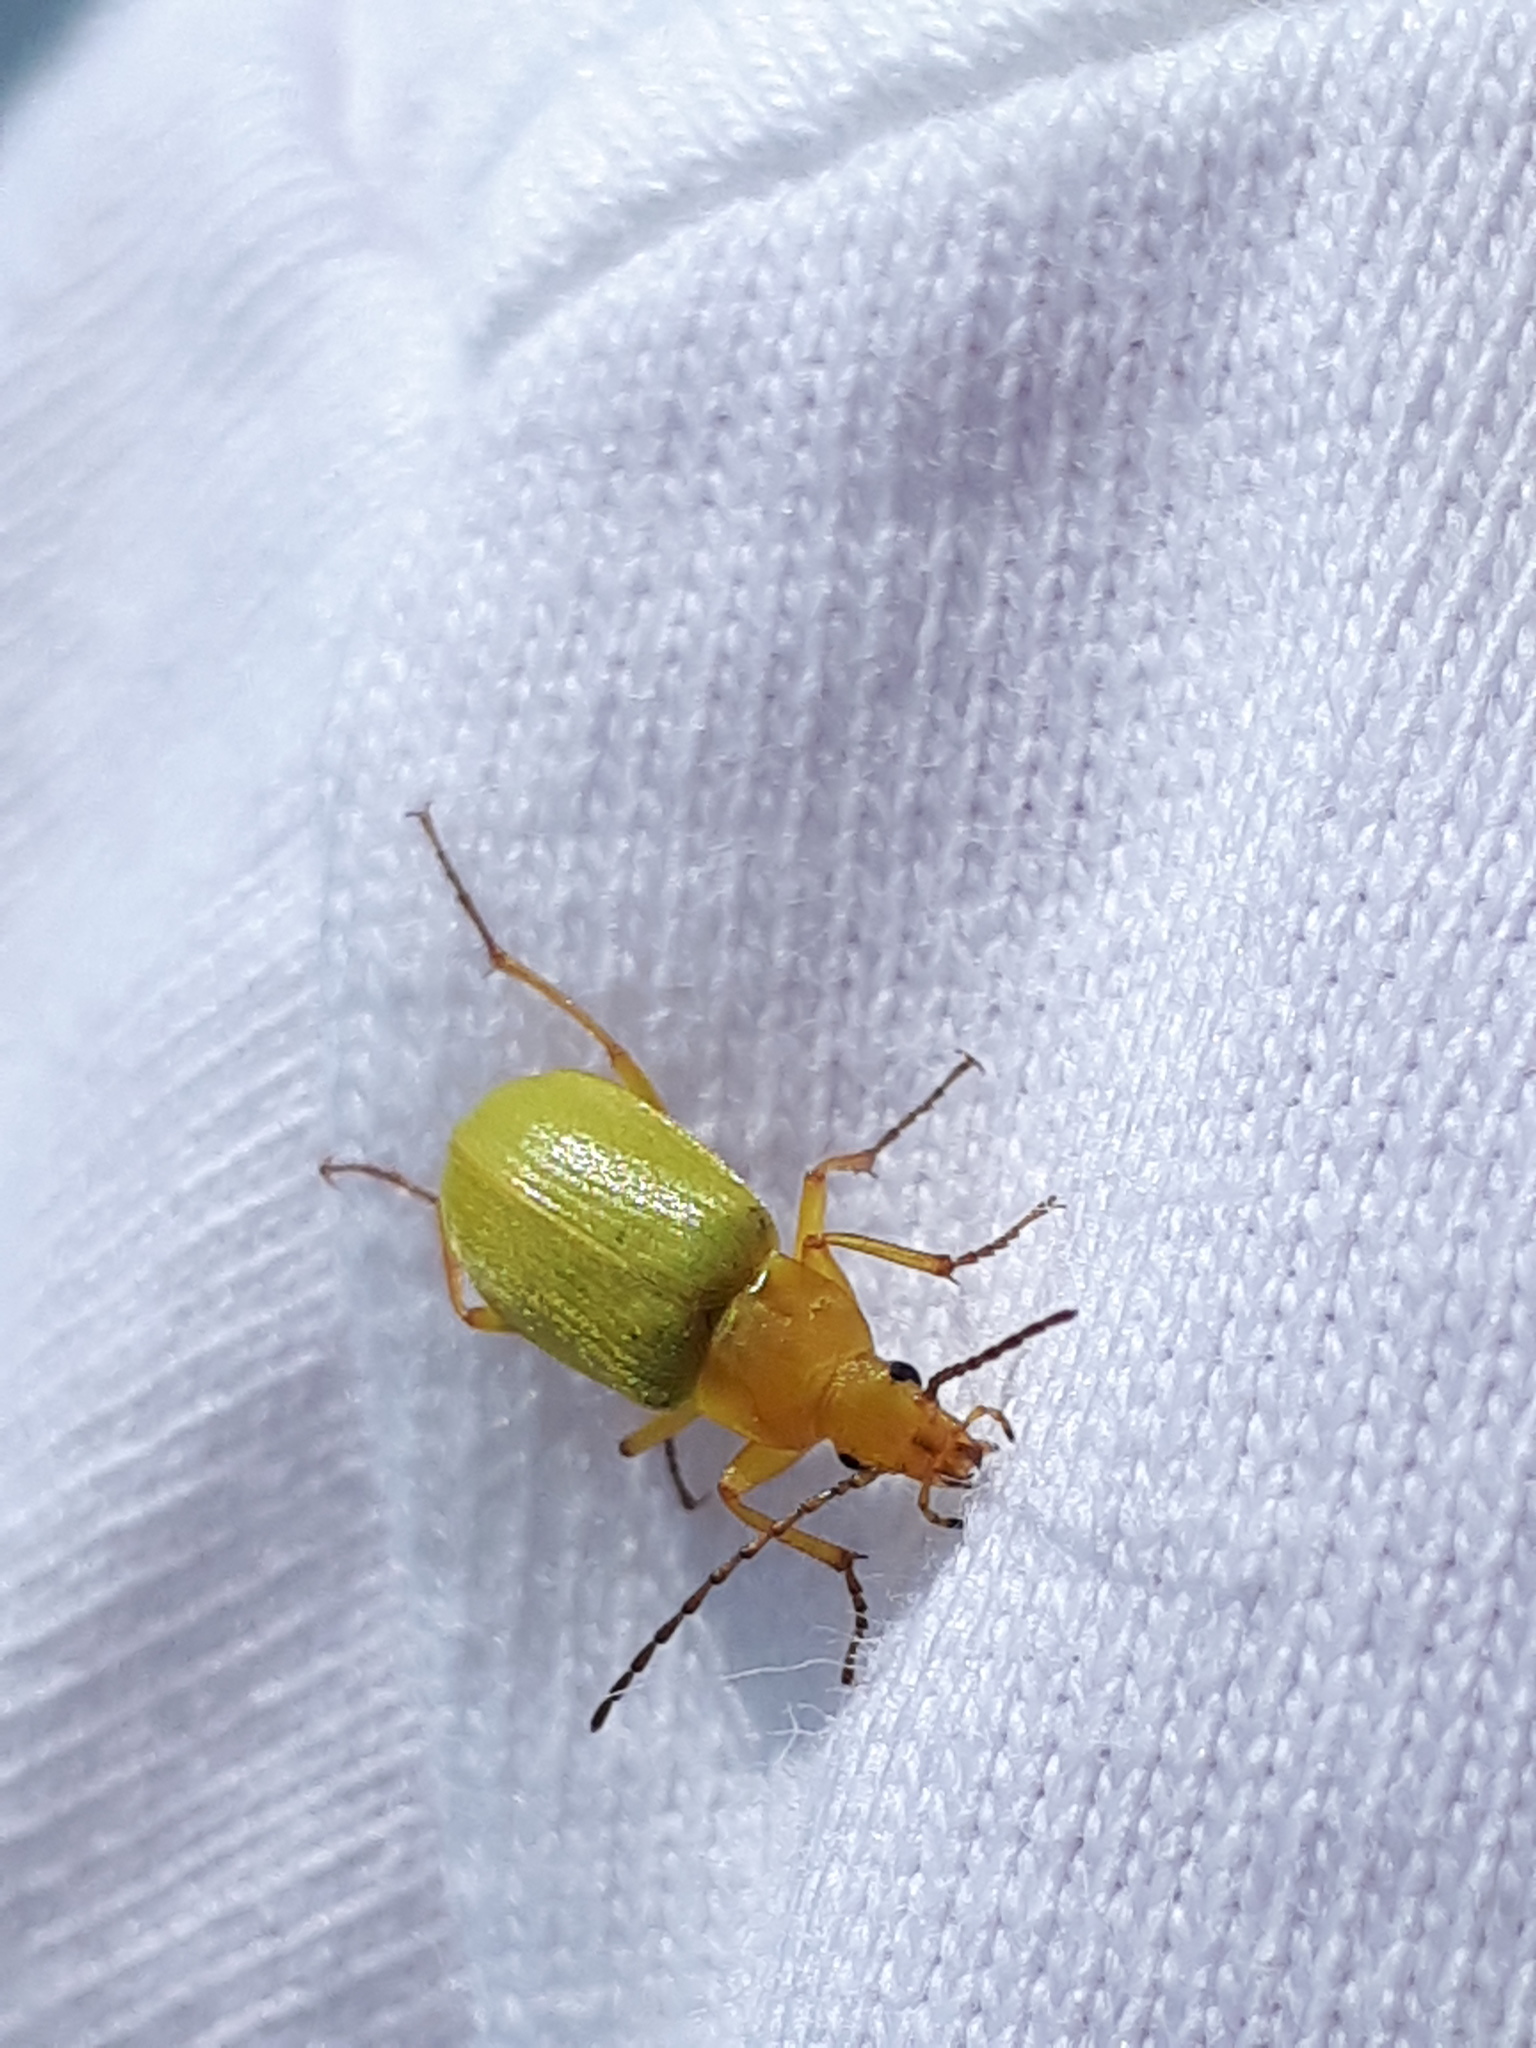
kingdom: Animalia
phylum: Arthropoda
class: Insecta
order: Coleoptera
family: Tenebrionidae
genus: Cteniopus
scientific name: Cteniopus sulphureus
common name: Sulphur beetle
